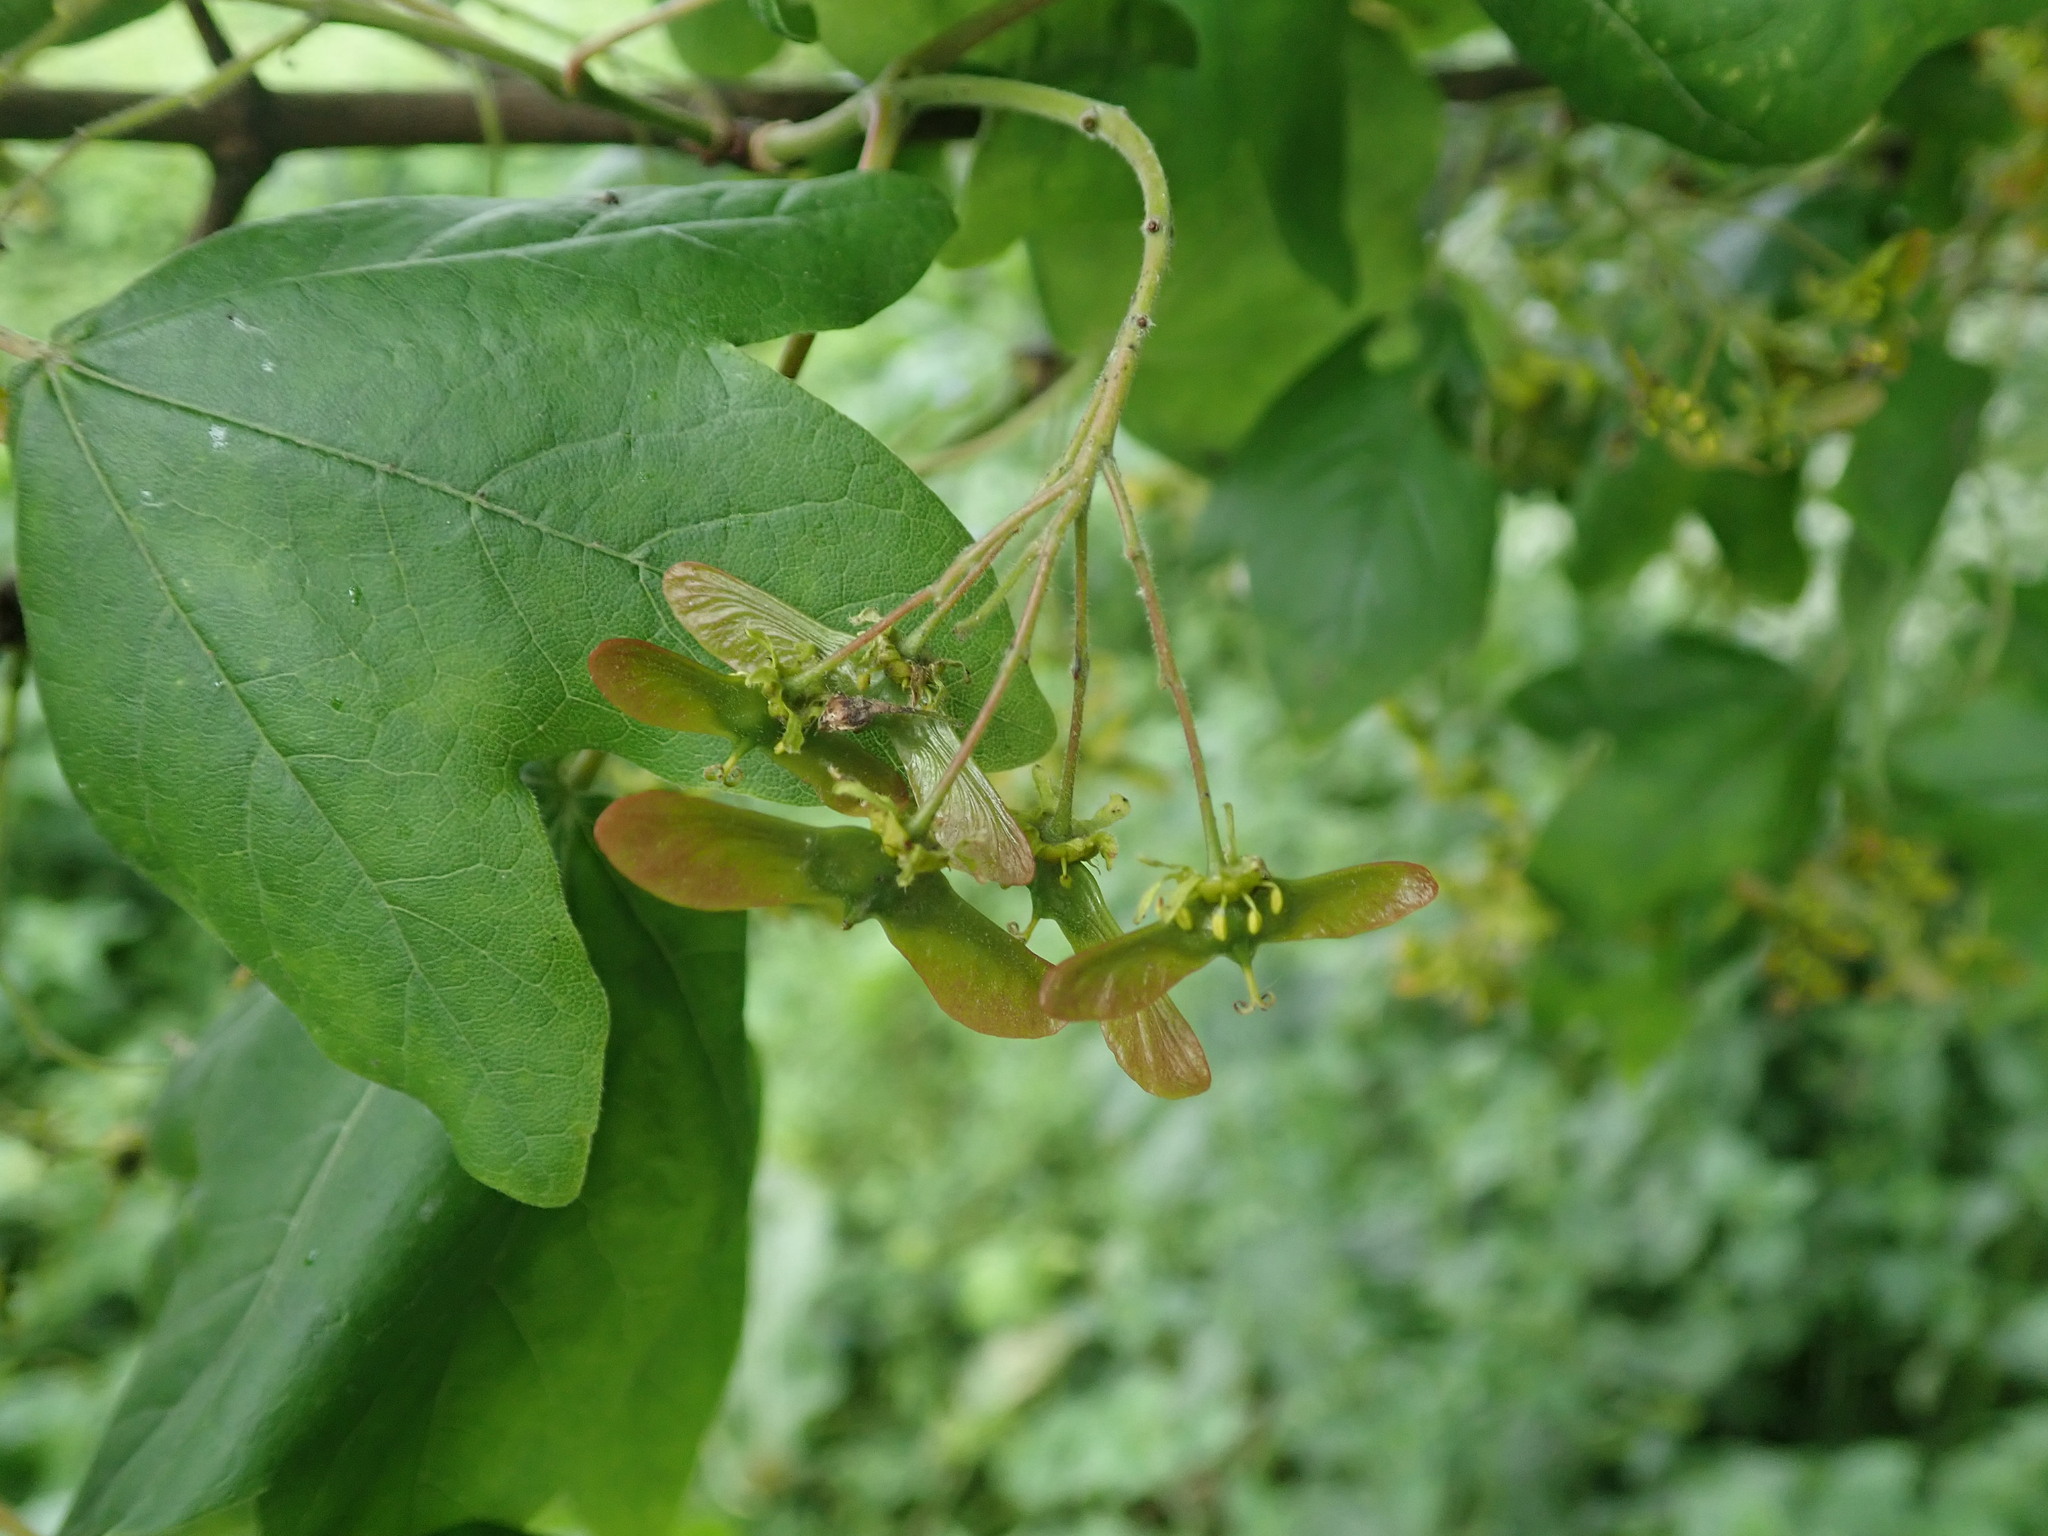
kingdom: Plantae
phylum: Tracheophyta
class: Magnoliopsida
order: Sapindales
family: Sapindaceae
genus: Acer
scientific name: Acer campestre
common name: Field maple
